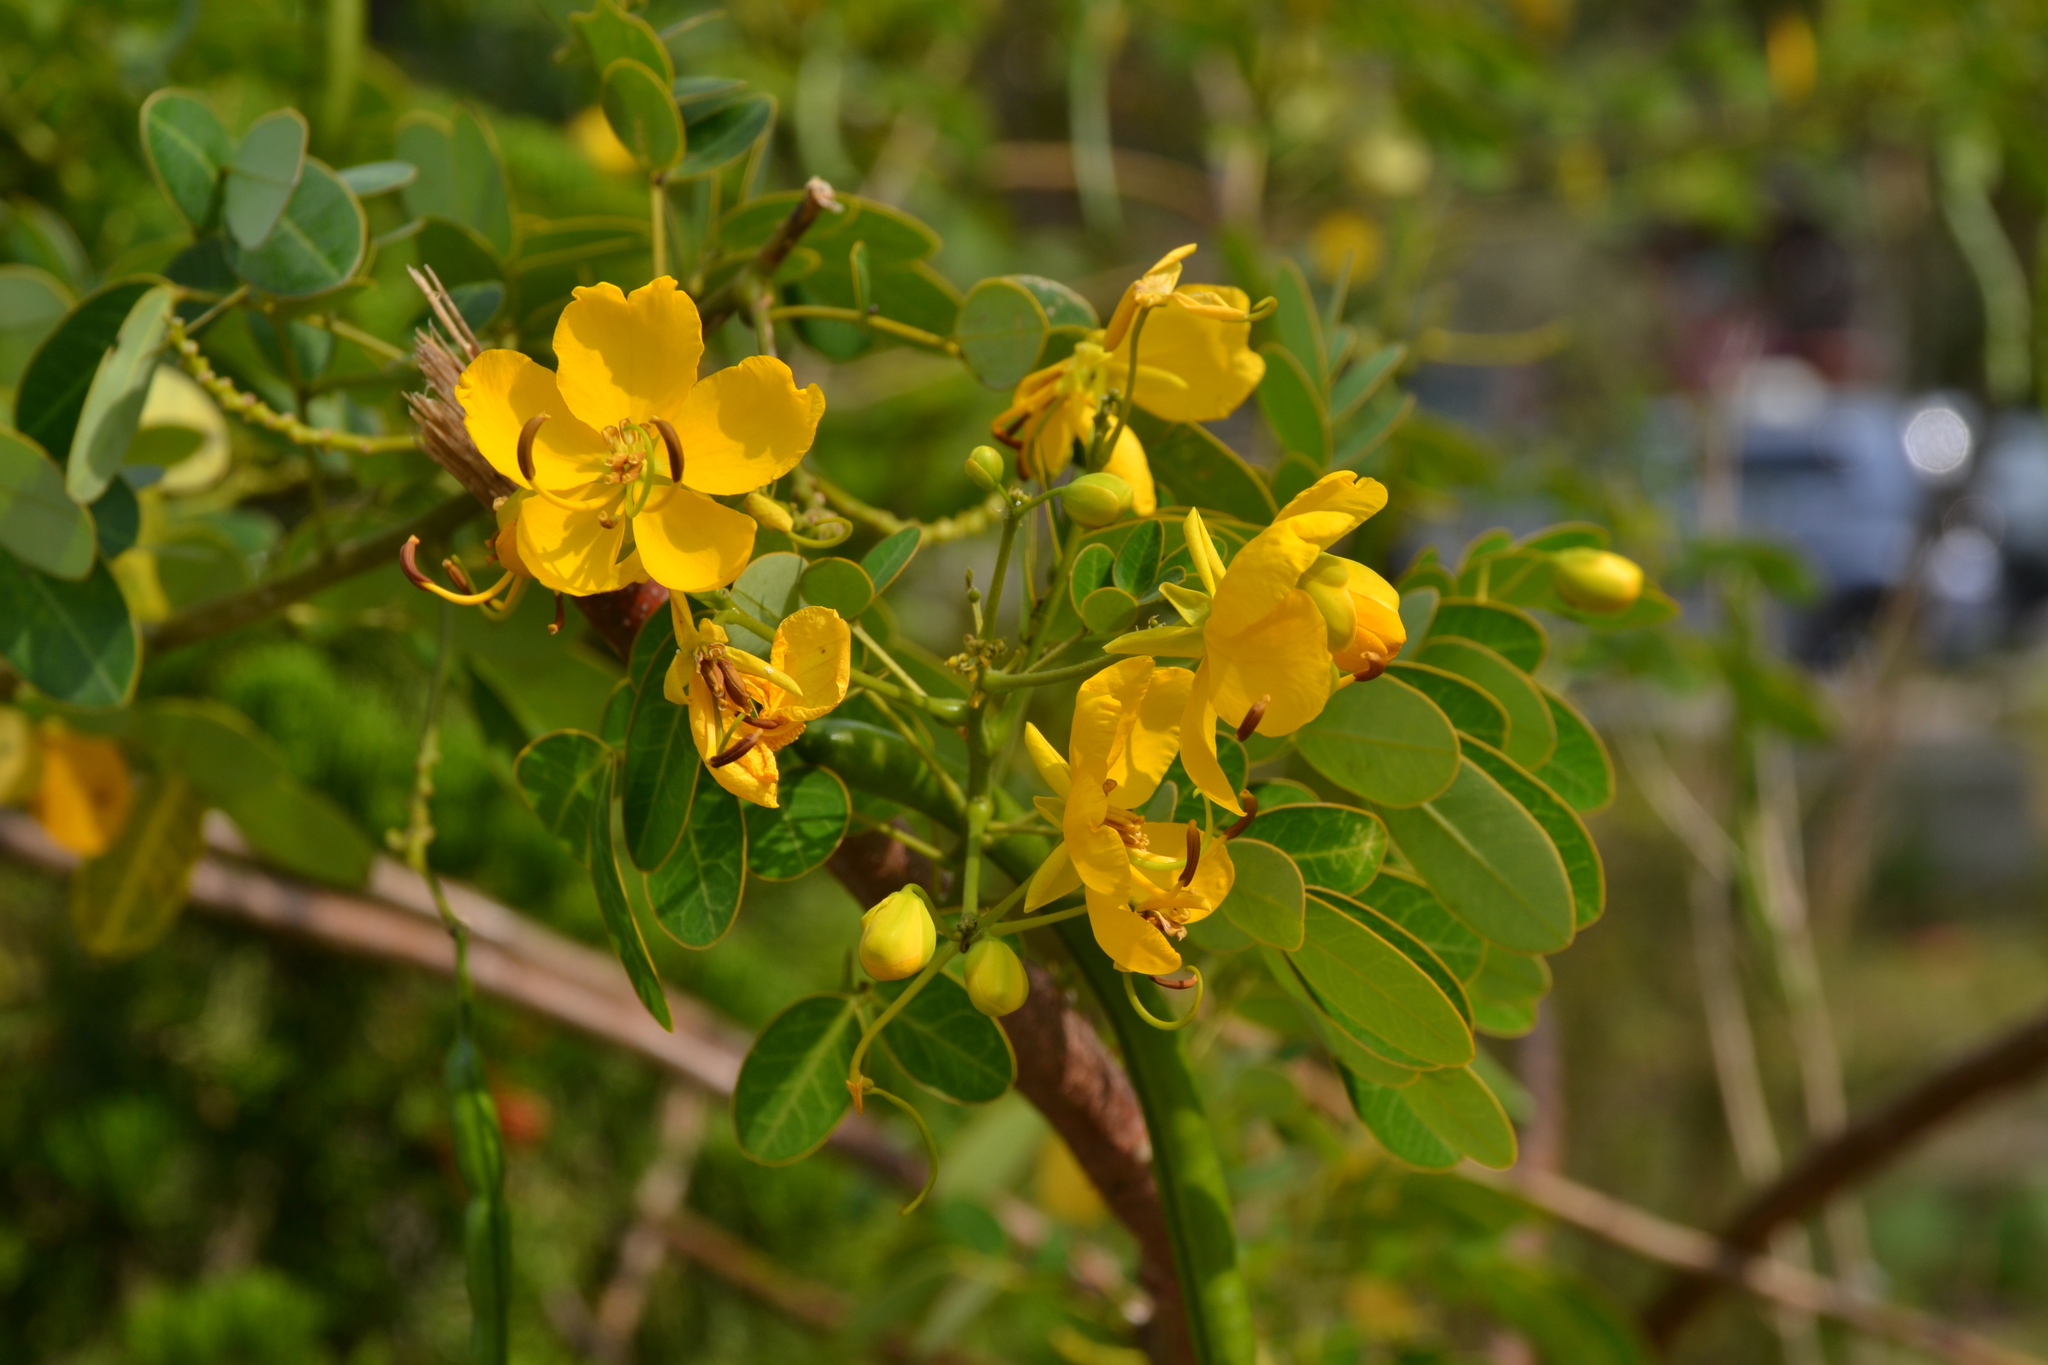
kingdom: Plantae
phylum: Tracheophyta
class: Magnoliopsida
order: Fabales
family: Fabaceae
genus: Senna
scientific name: Senna bicapsularis
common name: Christmasbush
